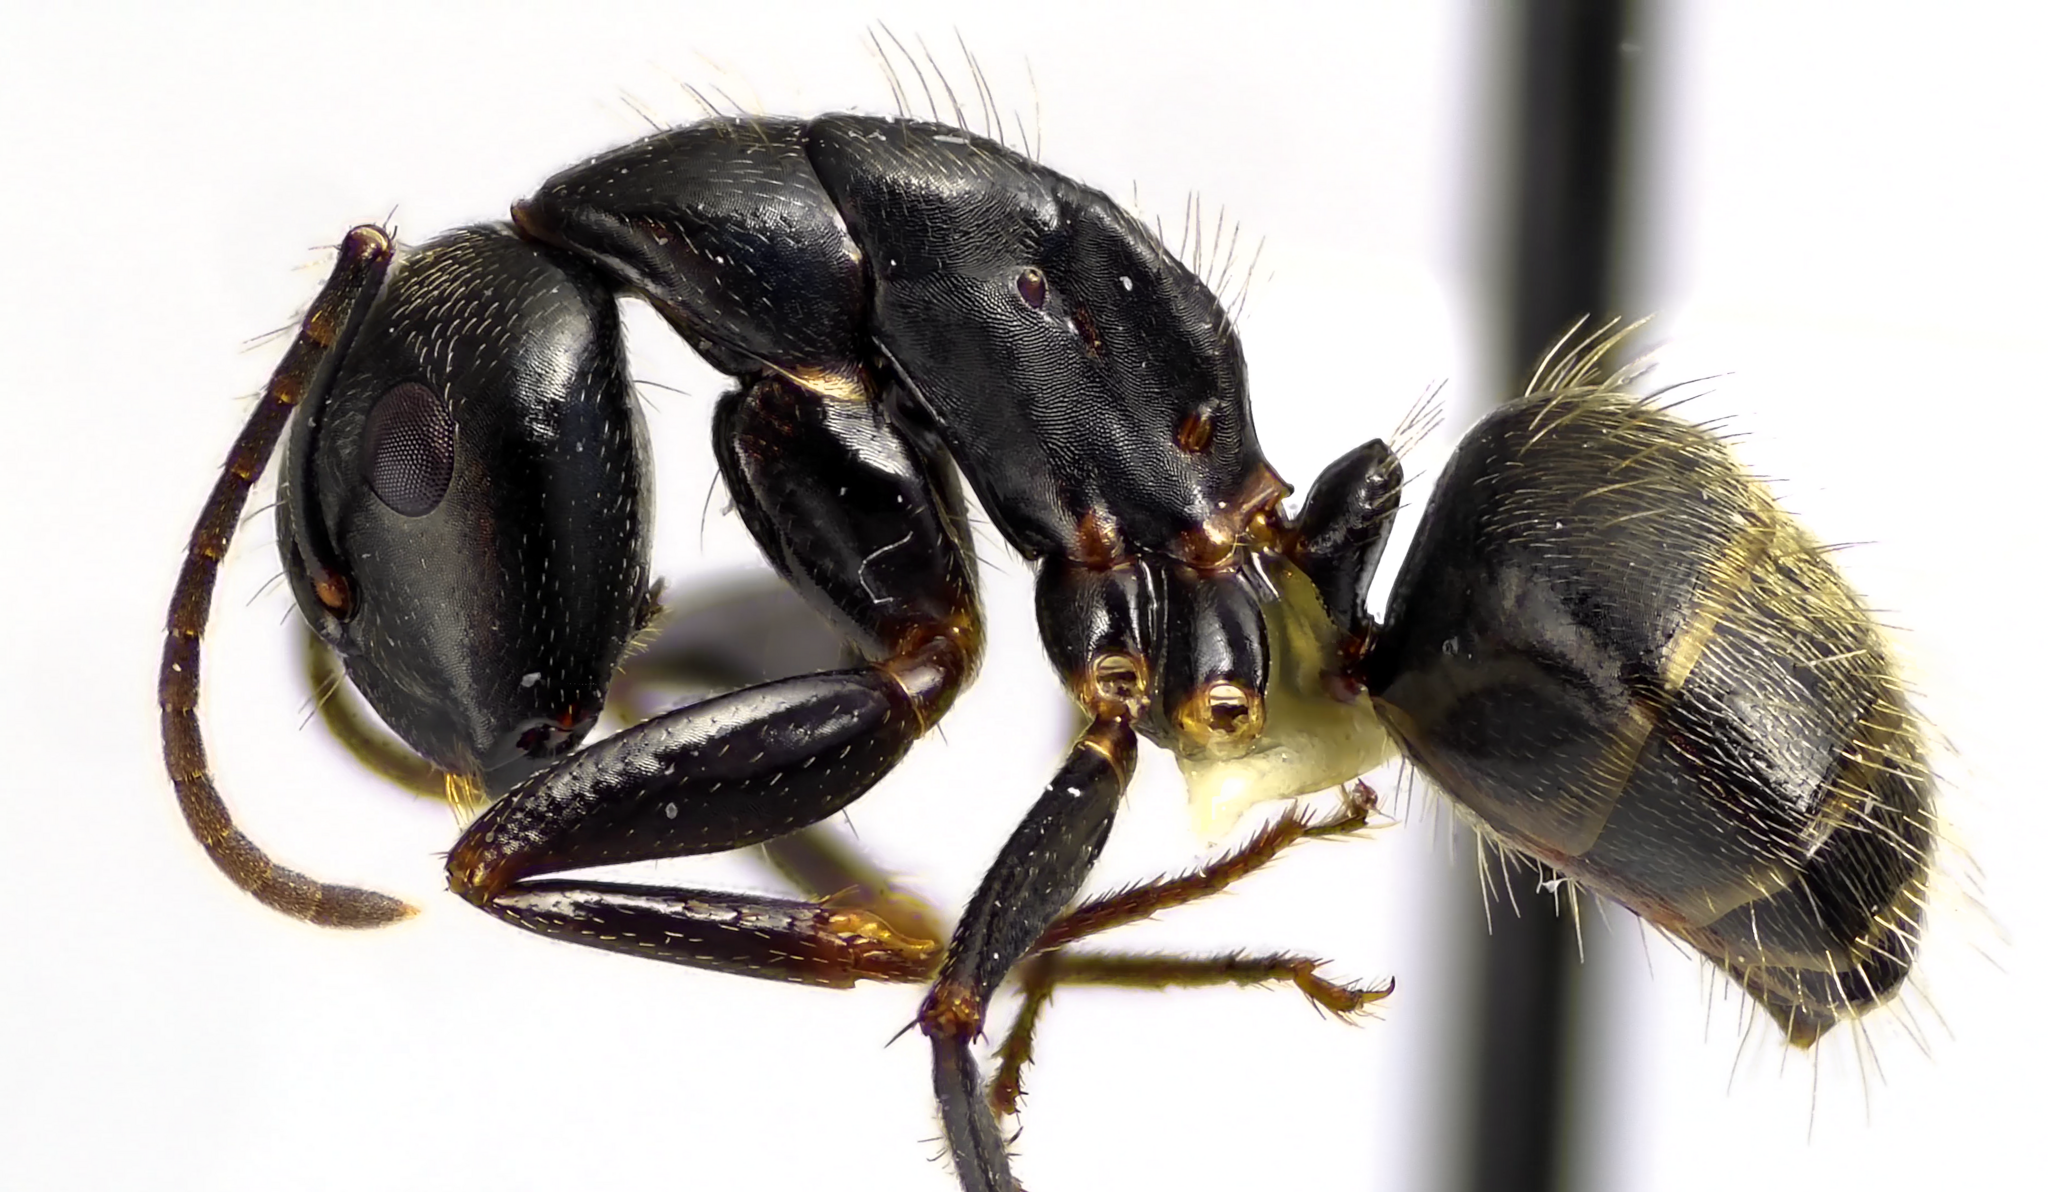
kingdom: Animalia
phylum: Arthropoda
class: Insecta
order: Hymenoptera
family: Formicidae
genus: Camponotus
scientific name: Camponotus pennsylvanicus
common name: Black carpenter ant
